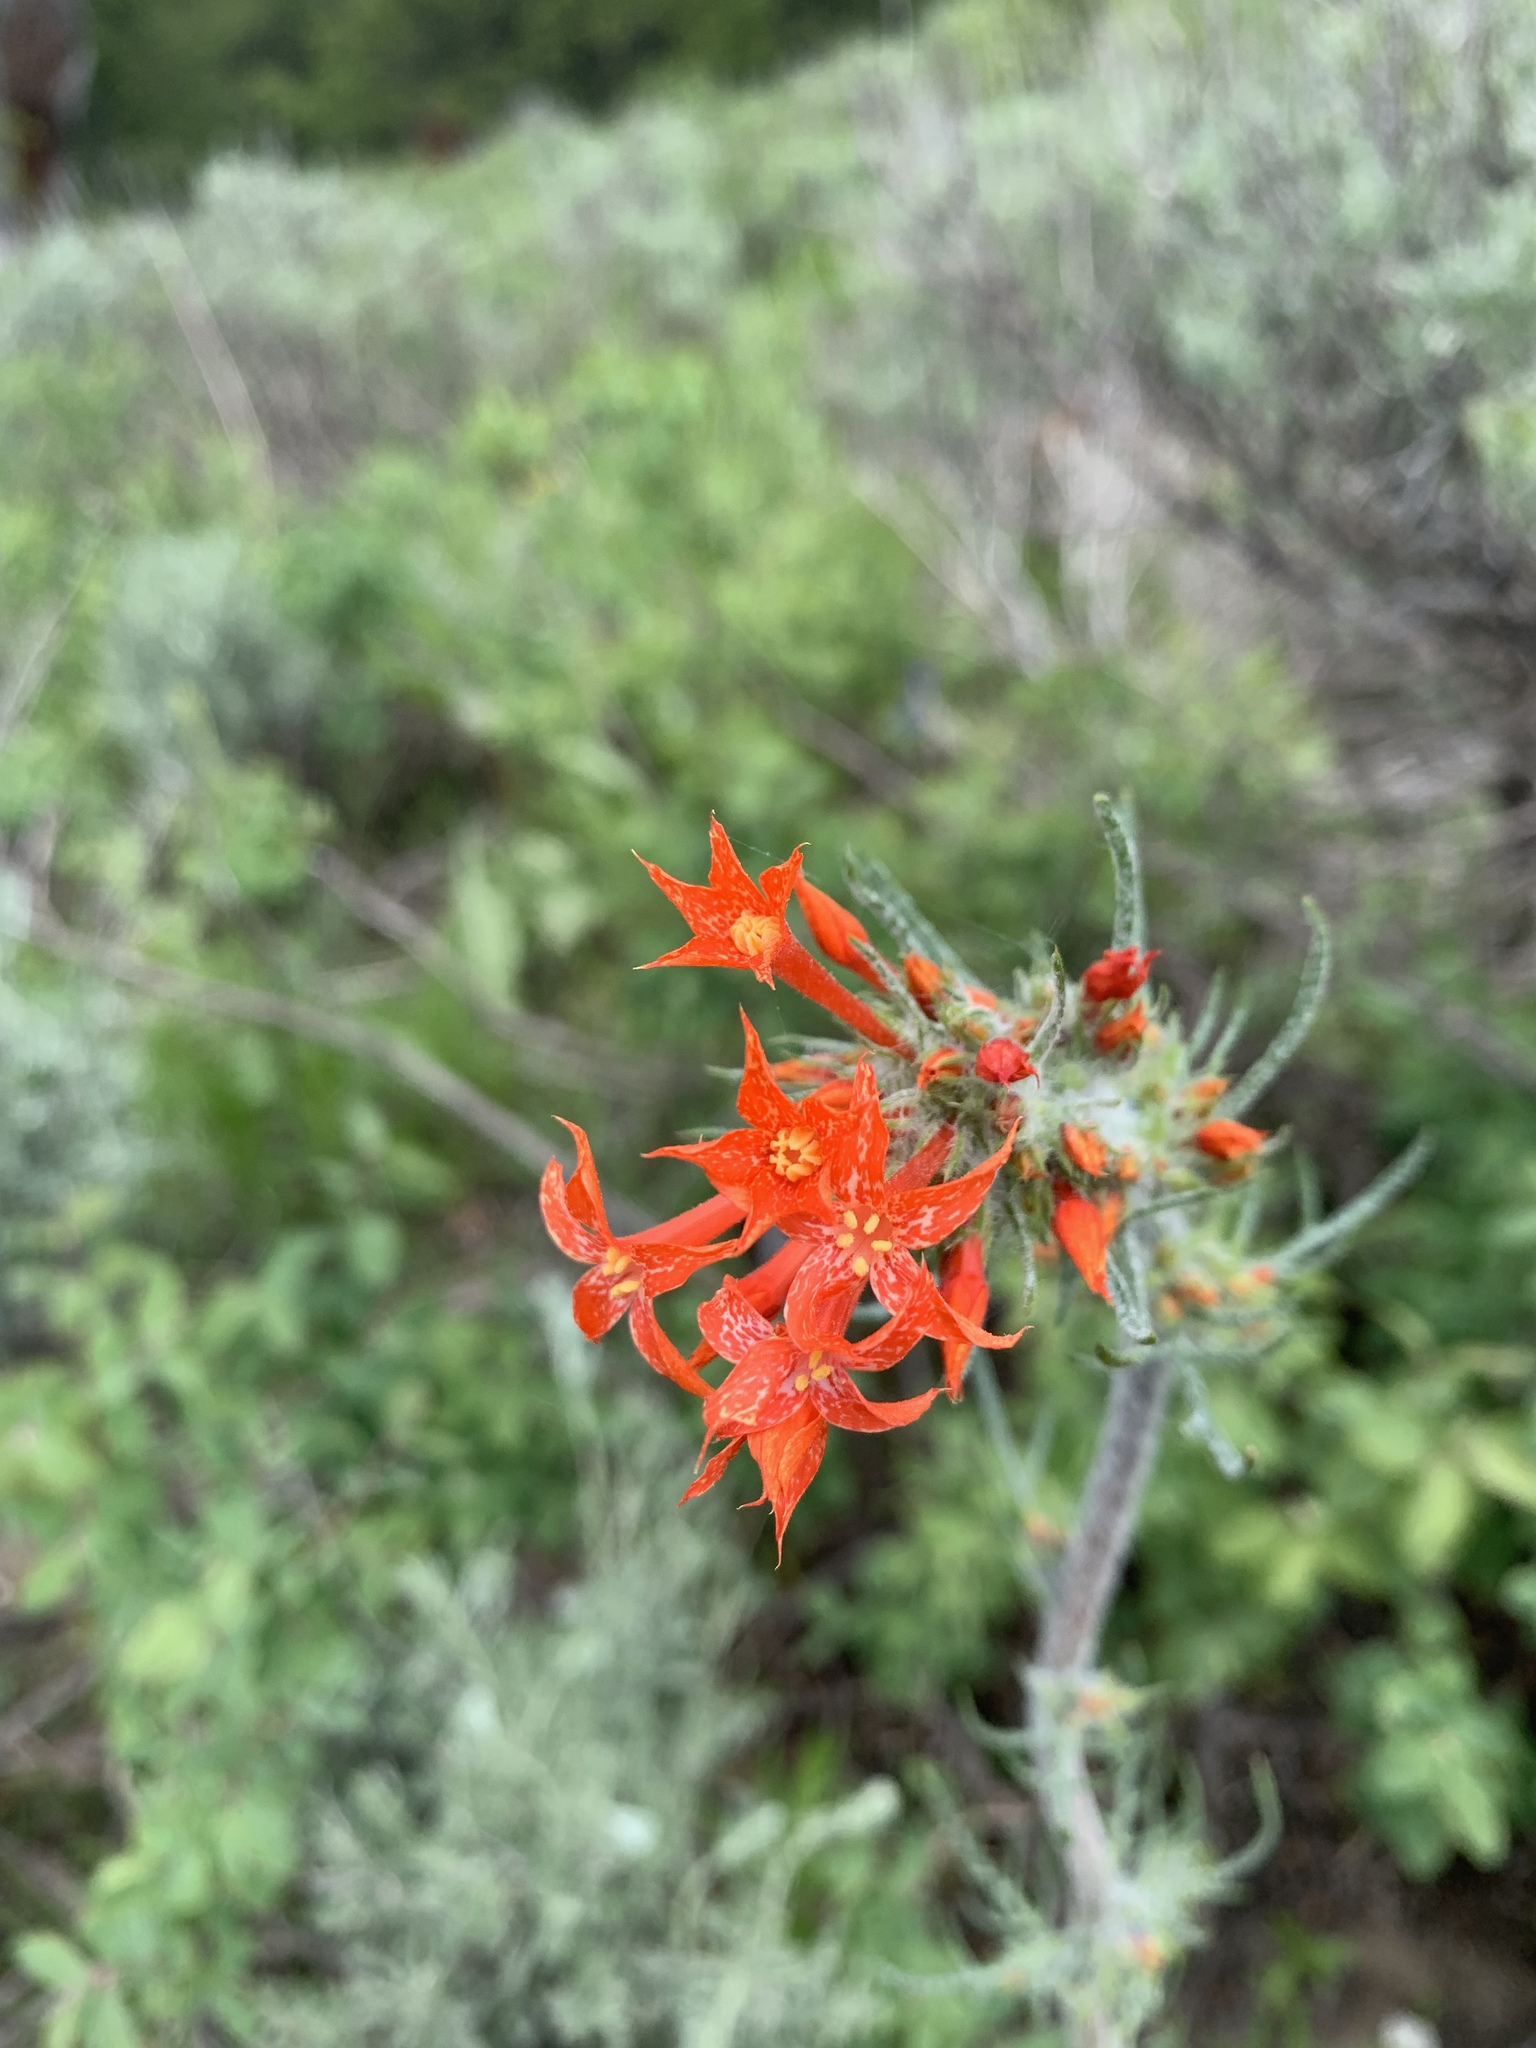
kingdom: Plantae
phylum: Tracheophyta
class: Magnoliopsida
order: Ericales
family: Polemoniaceae
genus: Ipomopsis
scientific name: Ipomopsis aggregata
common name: Scarlet gilia
